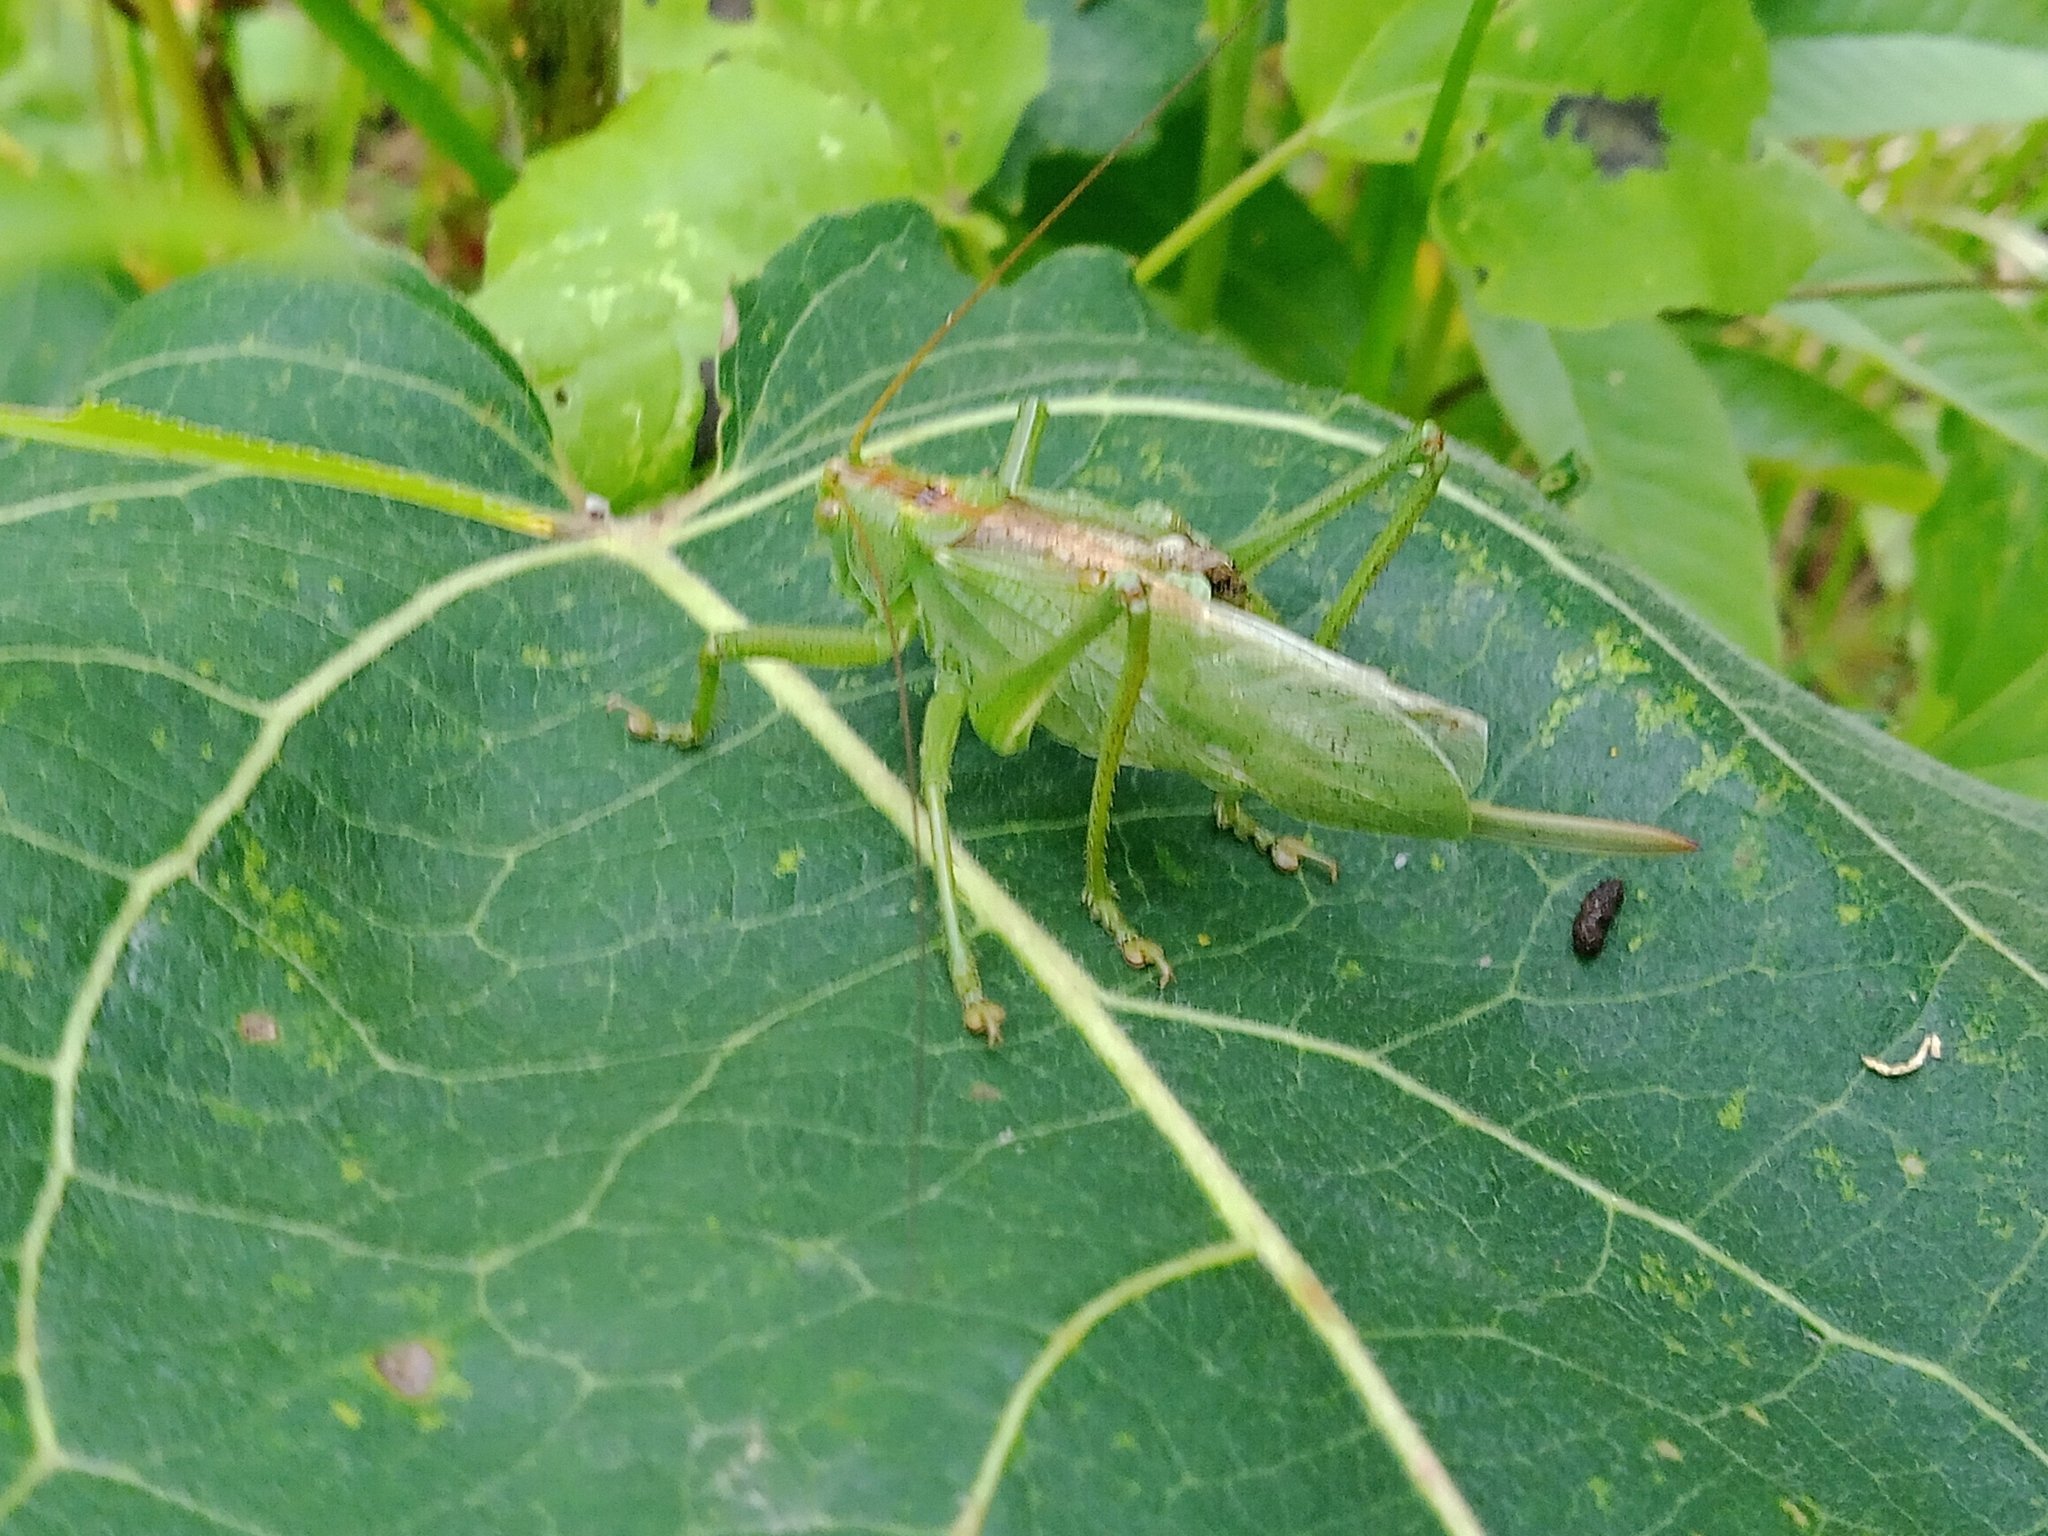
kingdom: Animalia
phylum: Arthropoda
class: Insecta
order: Orthoptera
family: Tettigoniidae
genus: Tettigonia
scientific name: Tettigonia cantans
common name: Upland green bush-cricket
